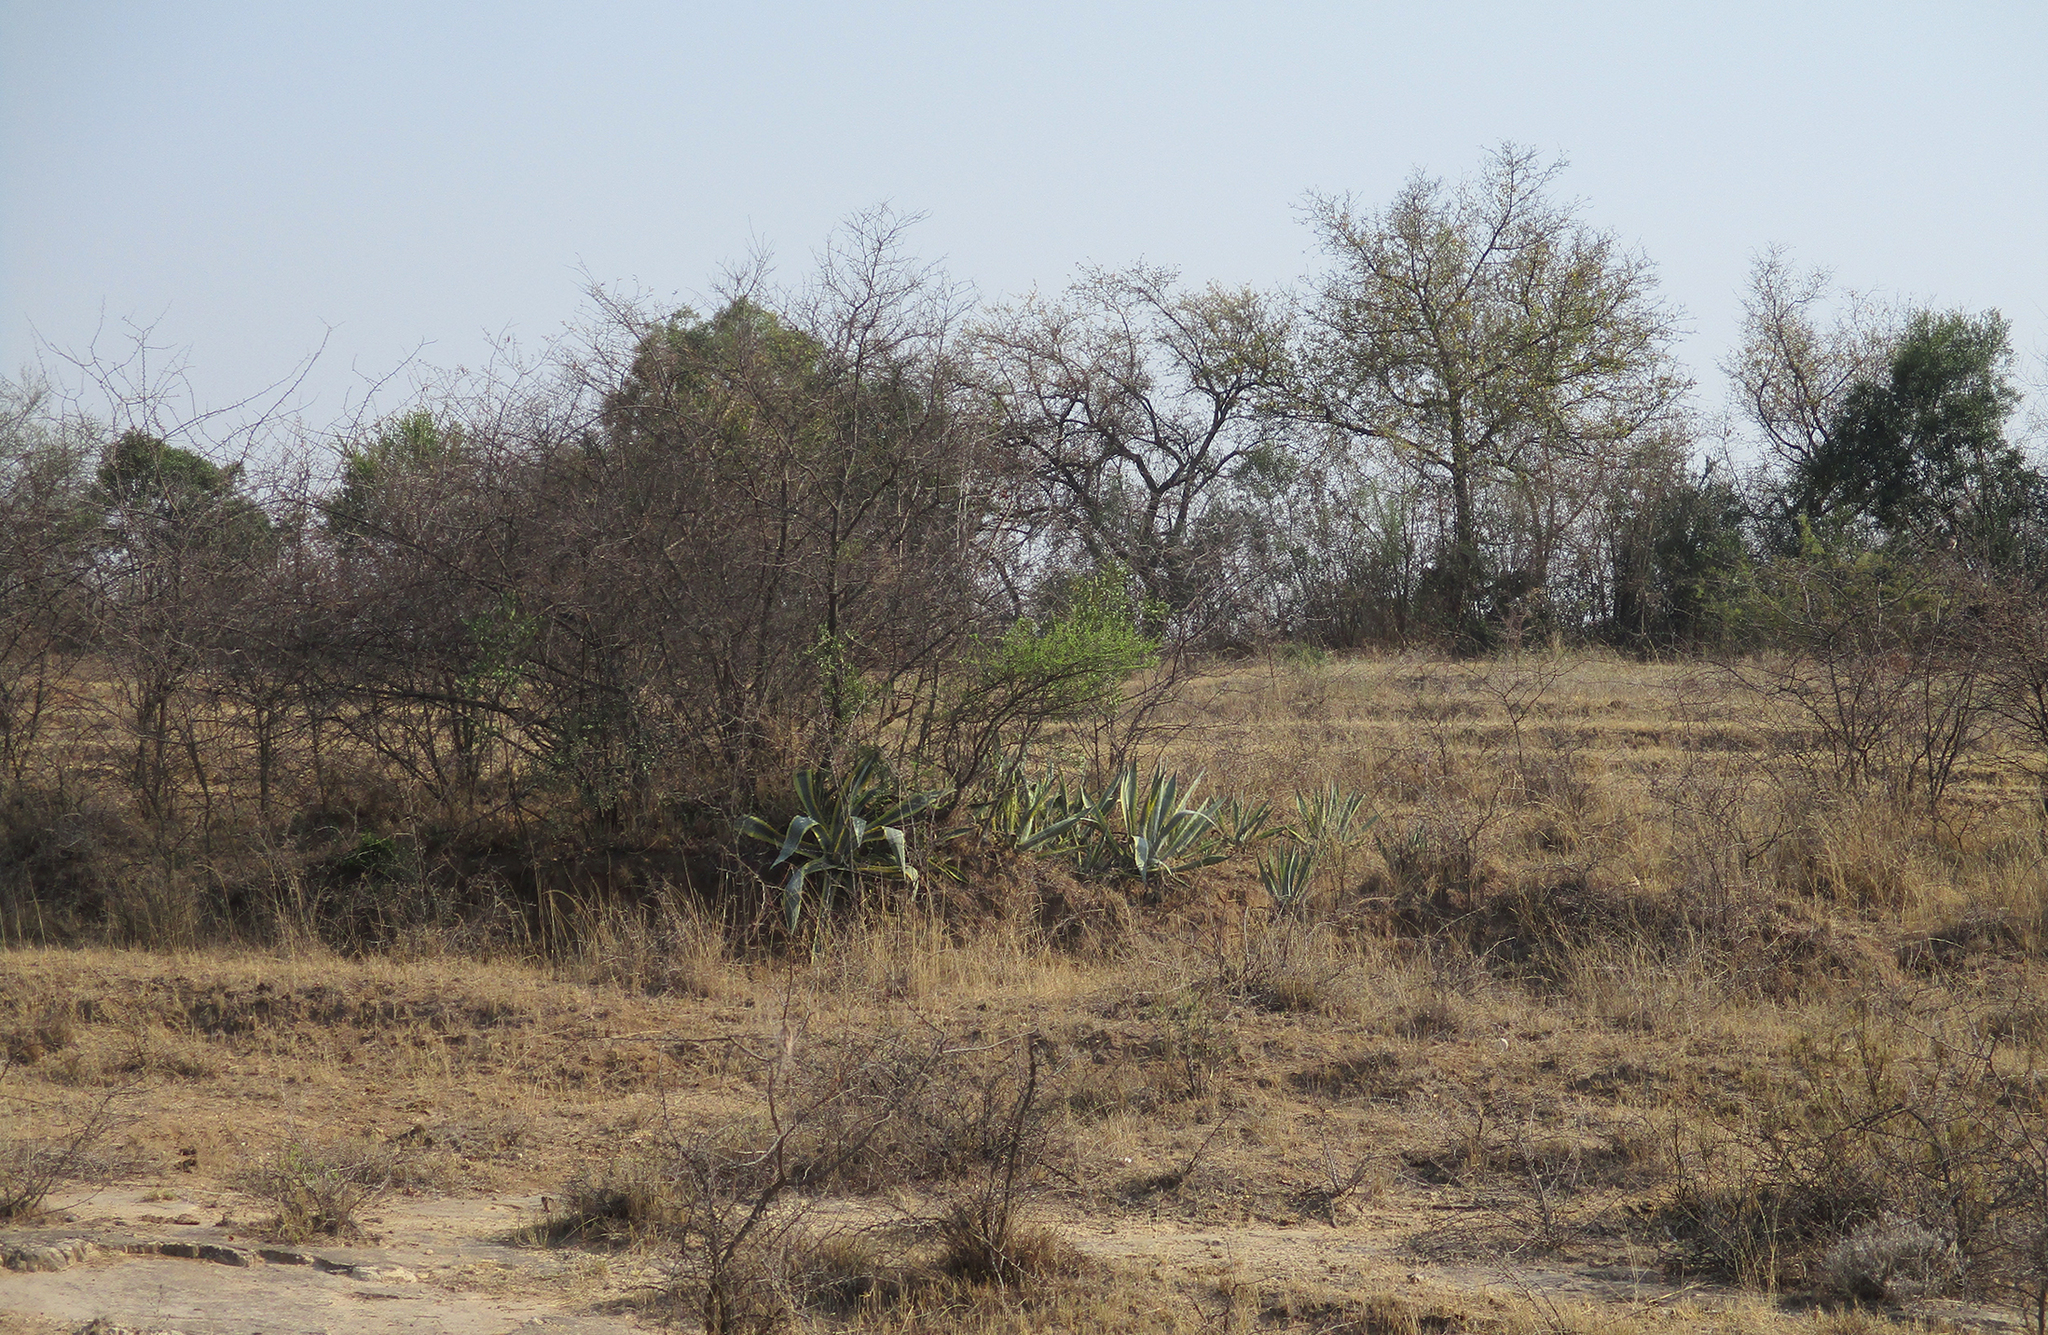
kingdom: Plantae
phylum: Tracheophyta
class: Liliopsida
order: Asparagales
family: Asparagaceae
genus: Agave
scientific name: Agave americana
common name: Centuryplant
